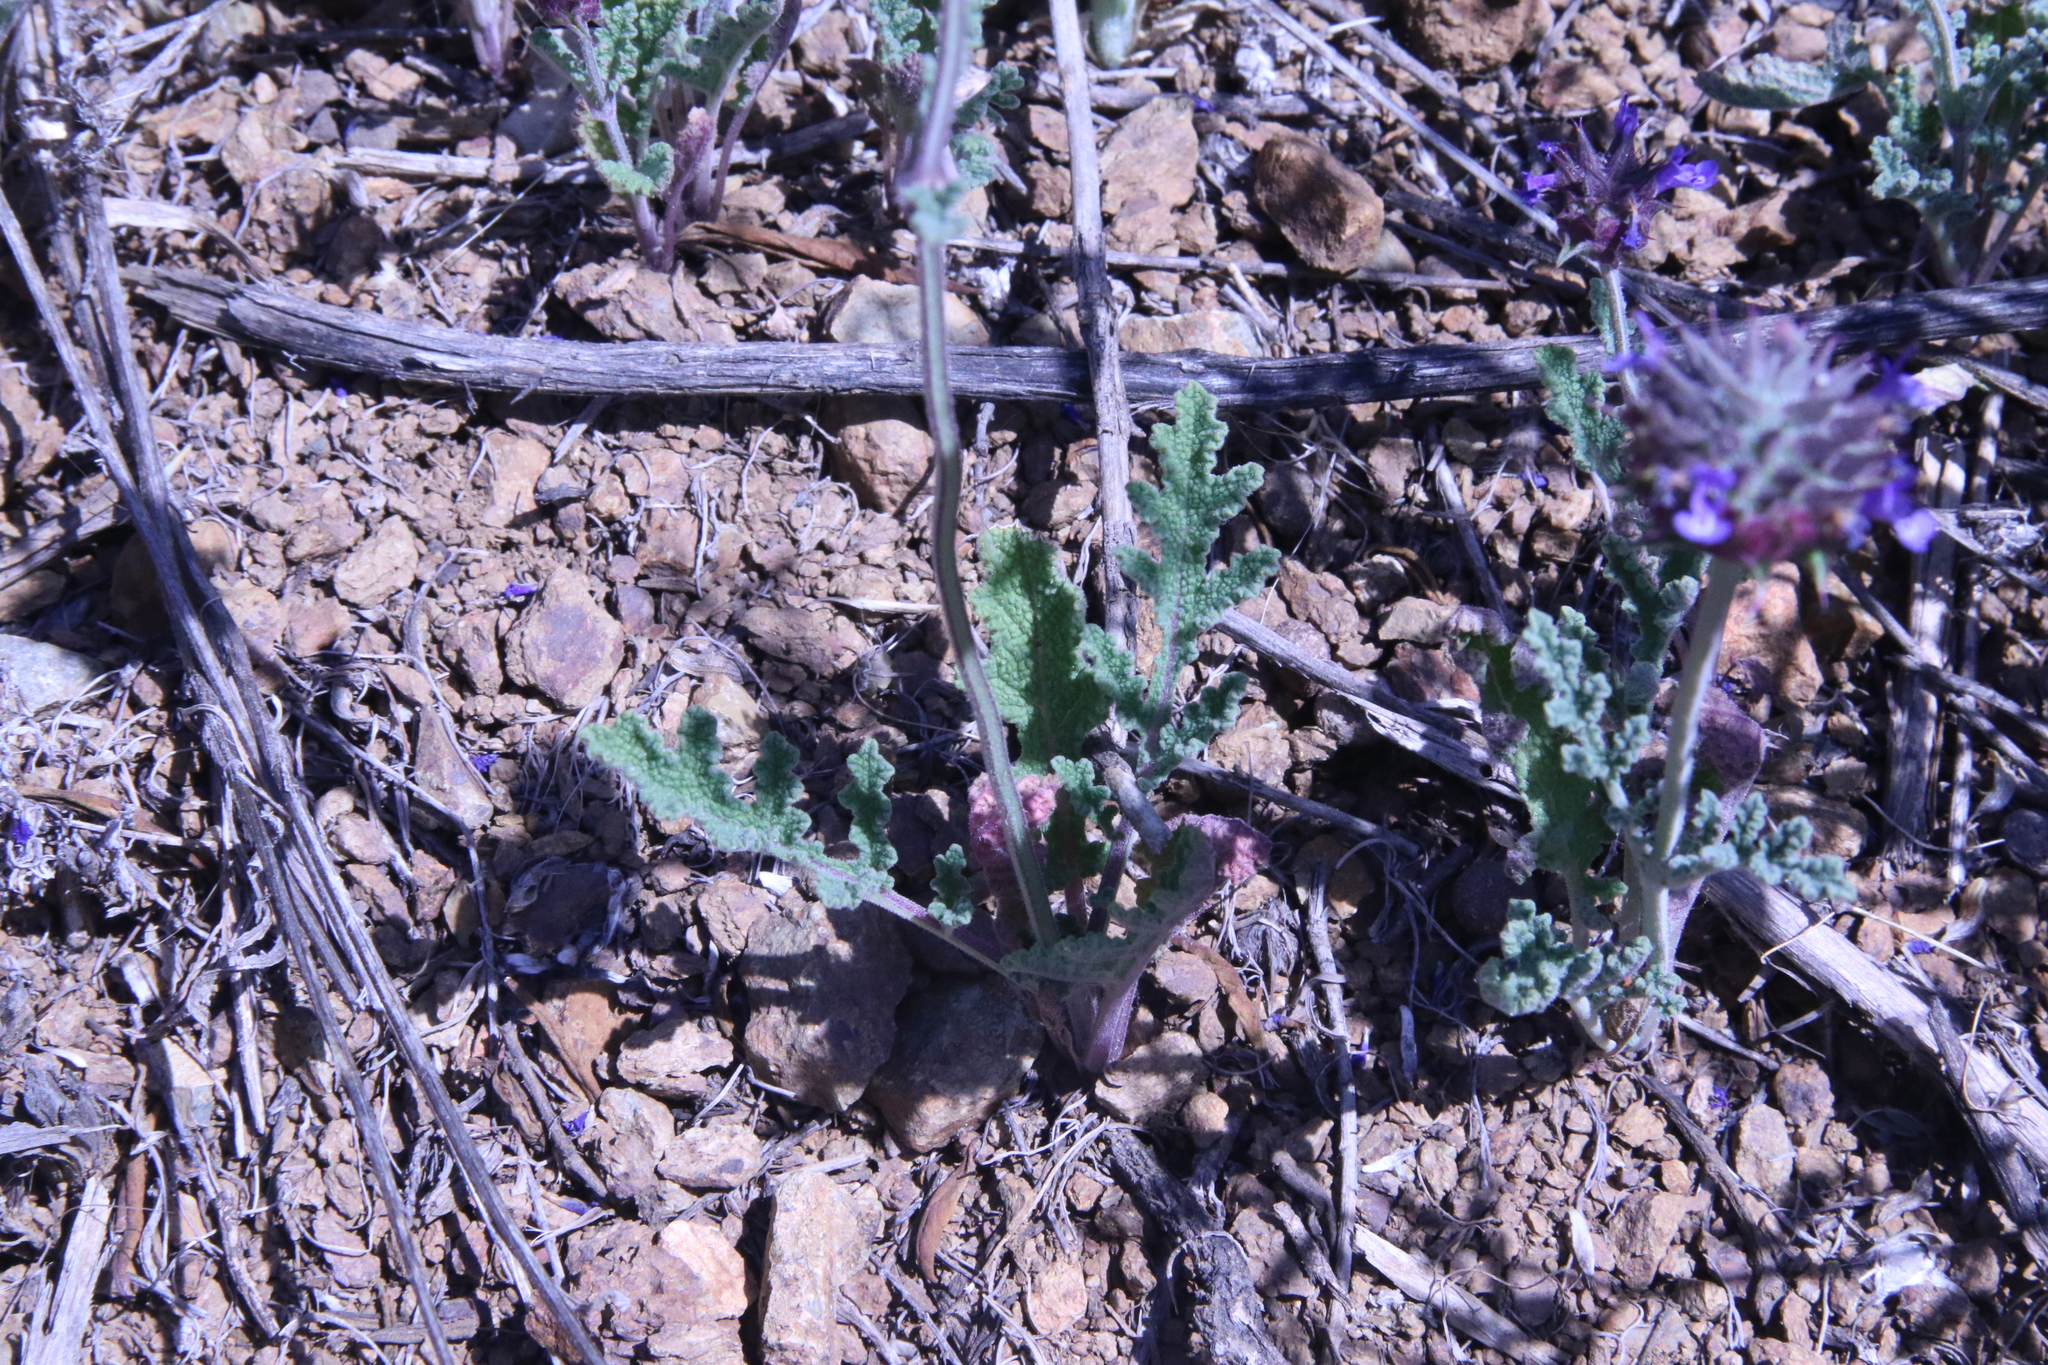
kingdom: Plantae
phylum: Tracheophyta
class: Magnoliopsida
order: Lamiales
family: Lamiaceae
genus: Salvia
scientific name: Salvia columbariae
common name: Chia
